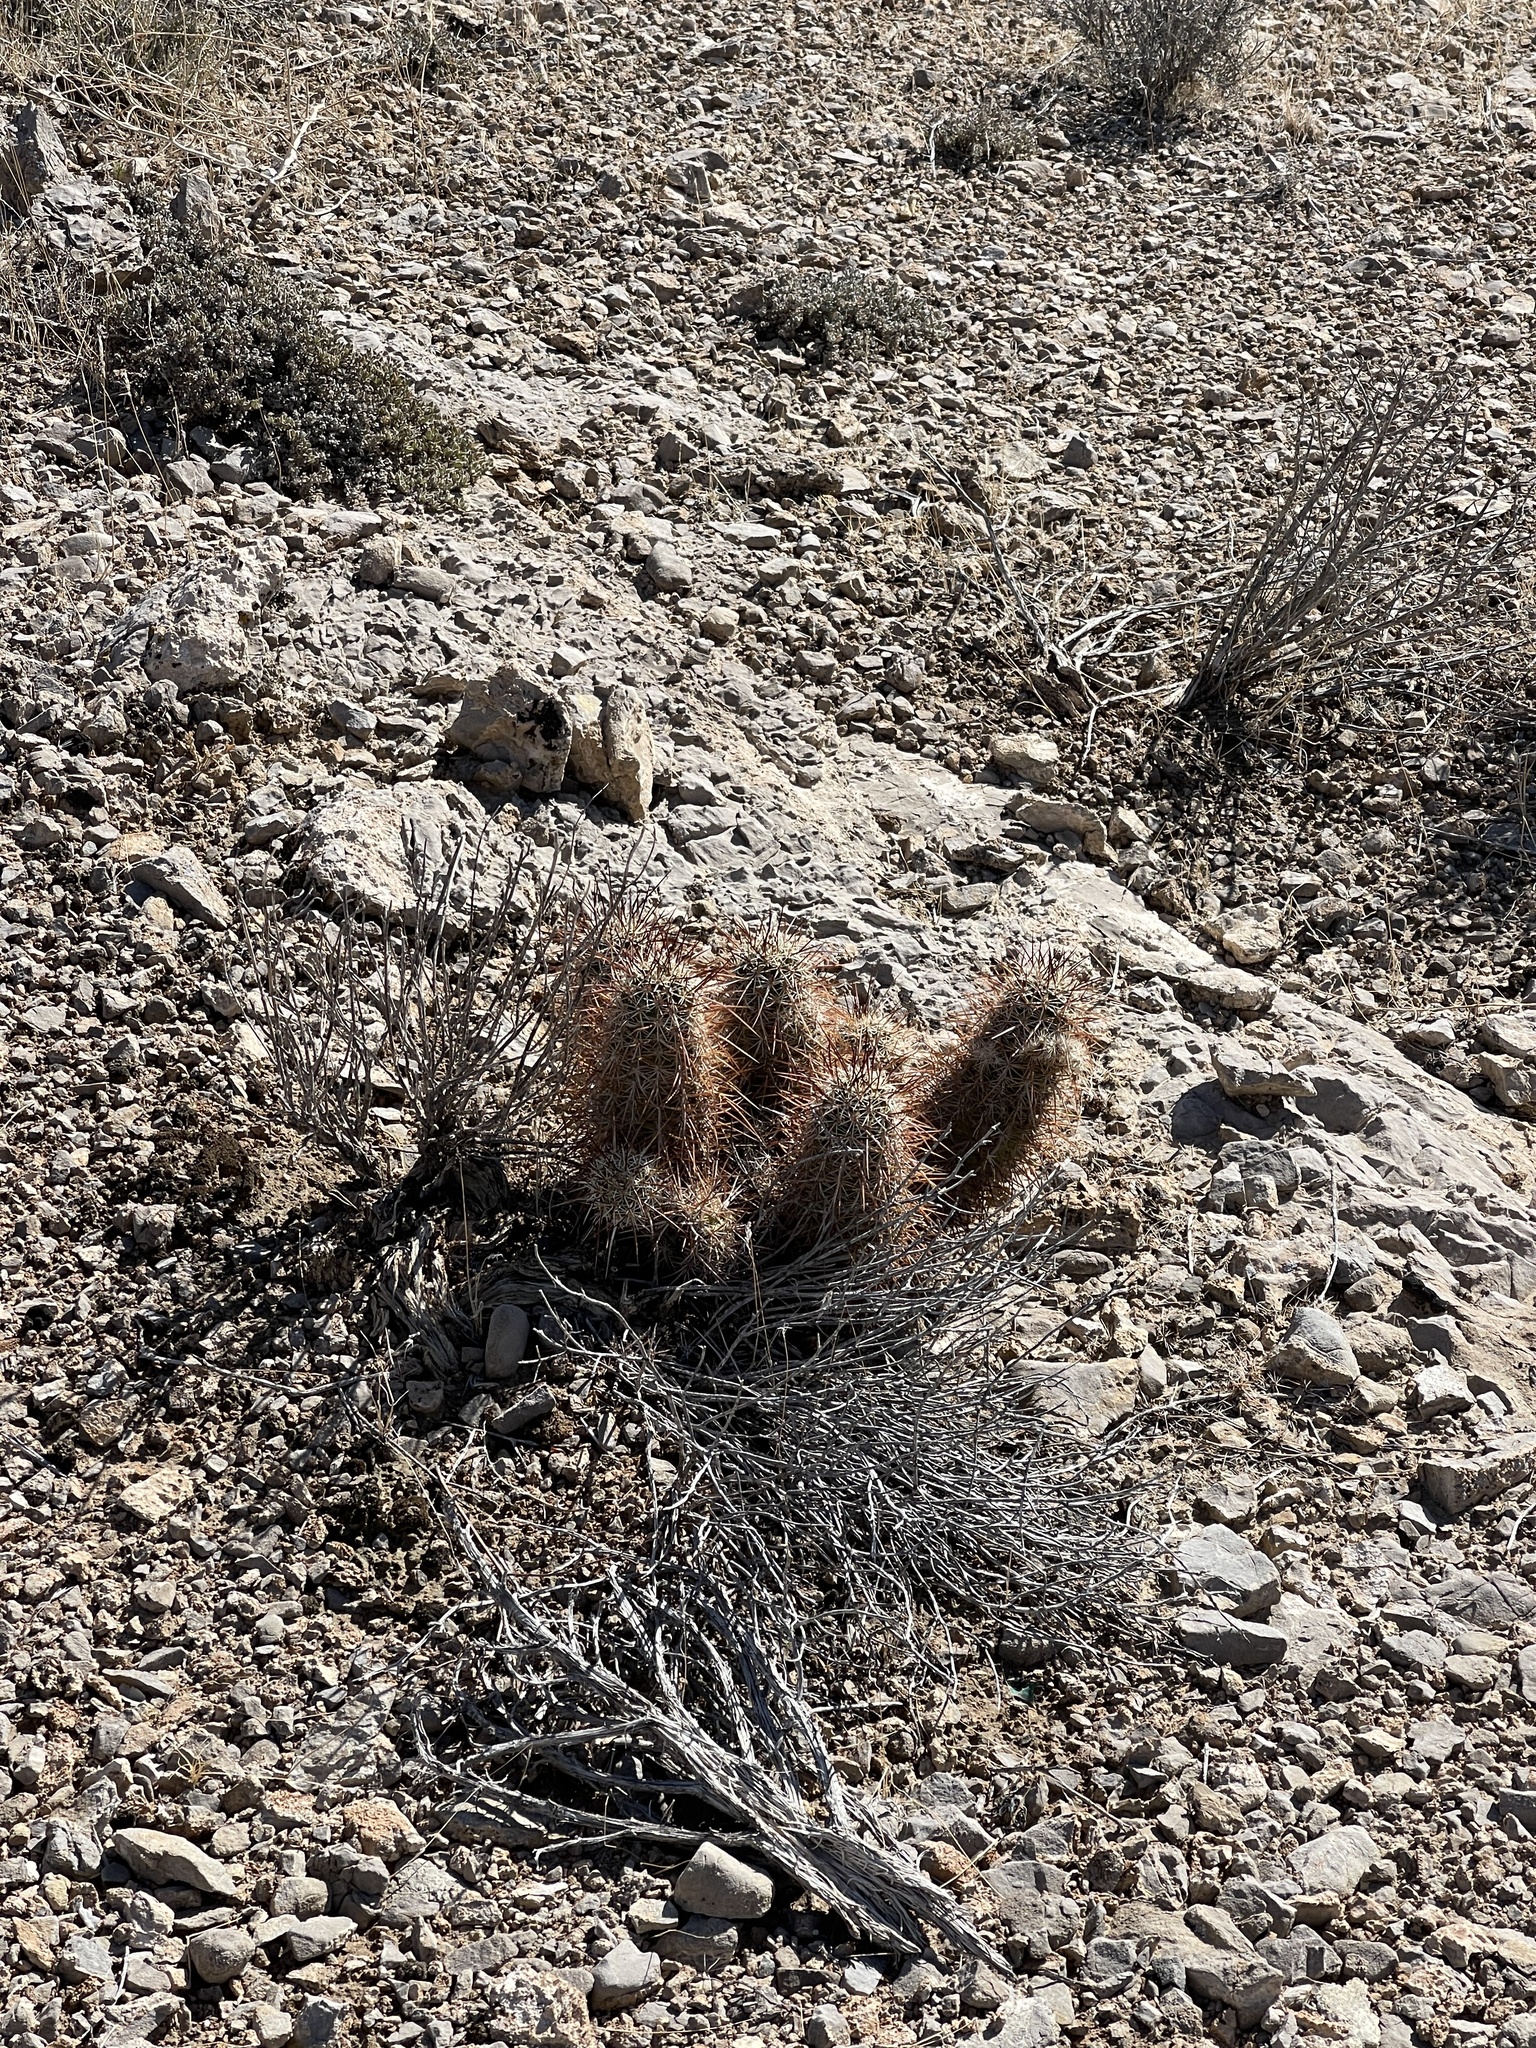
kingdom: Plantae
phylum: Tracheophyta
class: Magnoliopsida
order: Caryophyllales
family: Cactaceae
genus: Echinocereus
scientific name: Echinocereus engelmannii
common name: Engelmann's hedgehog cactus
